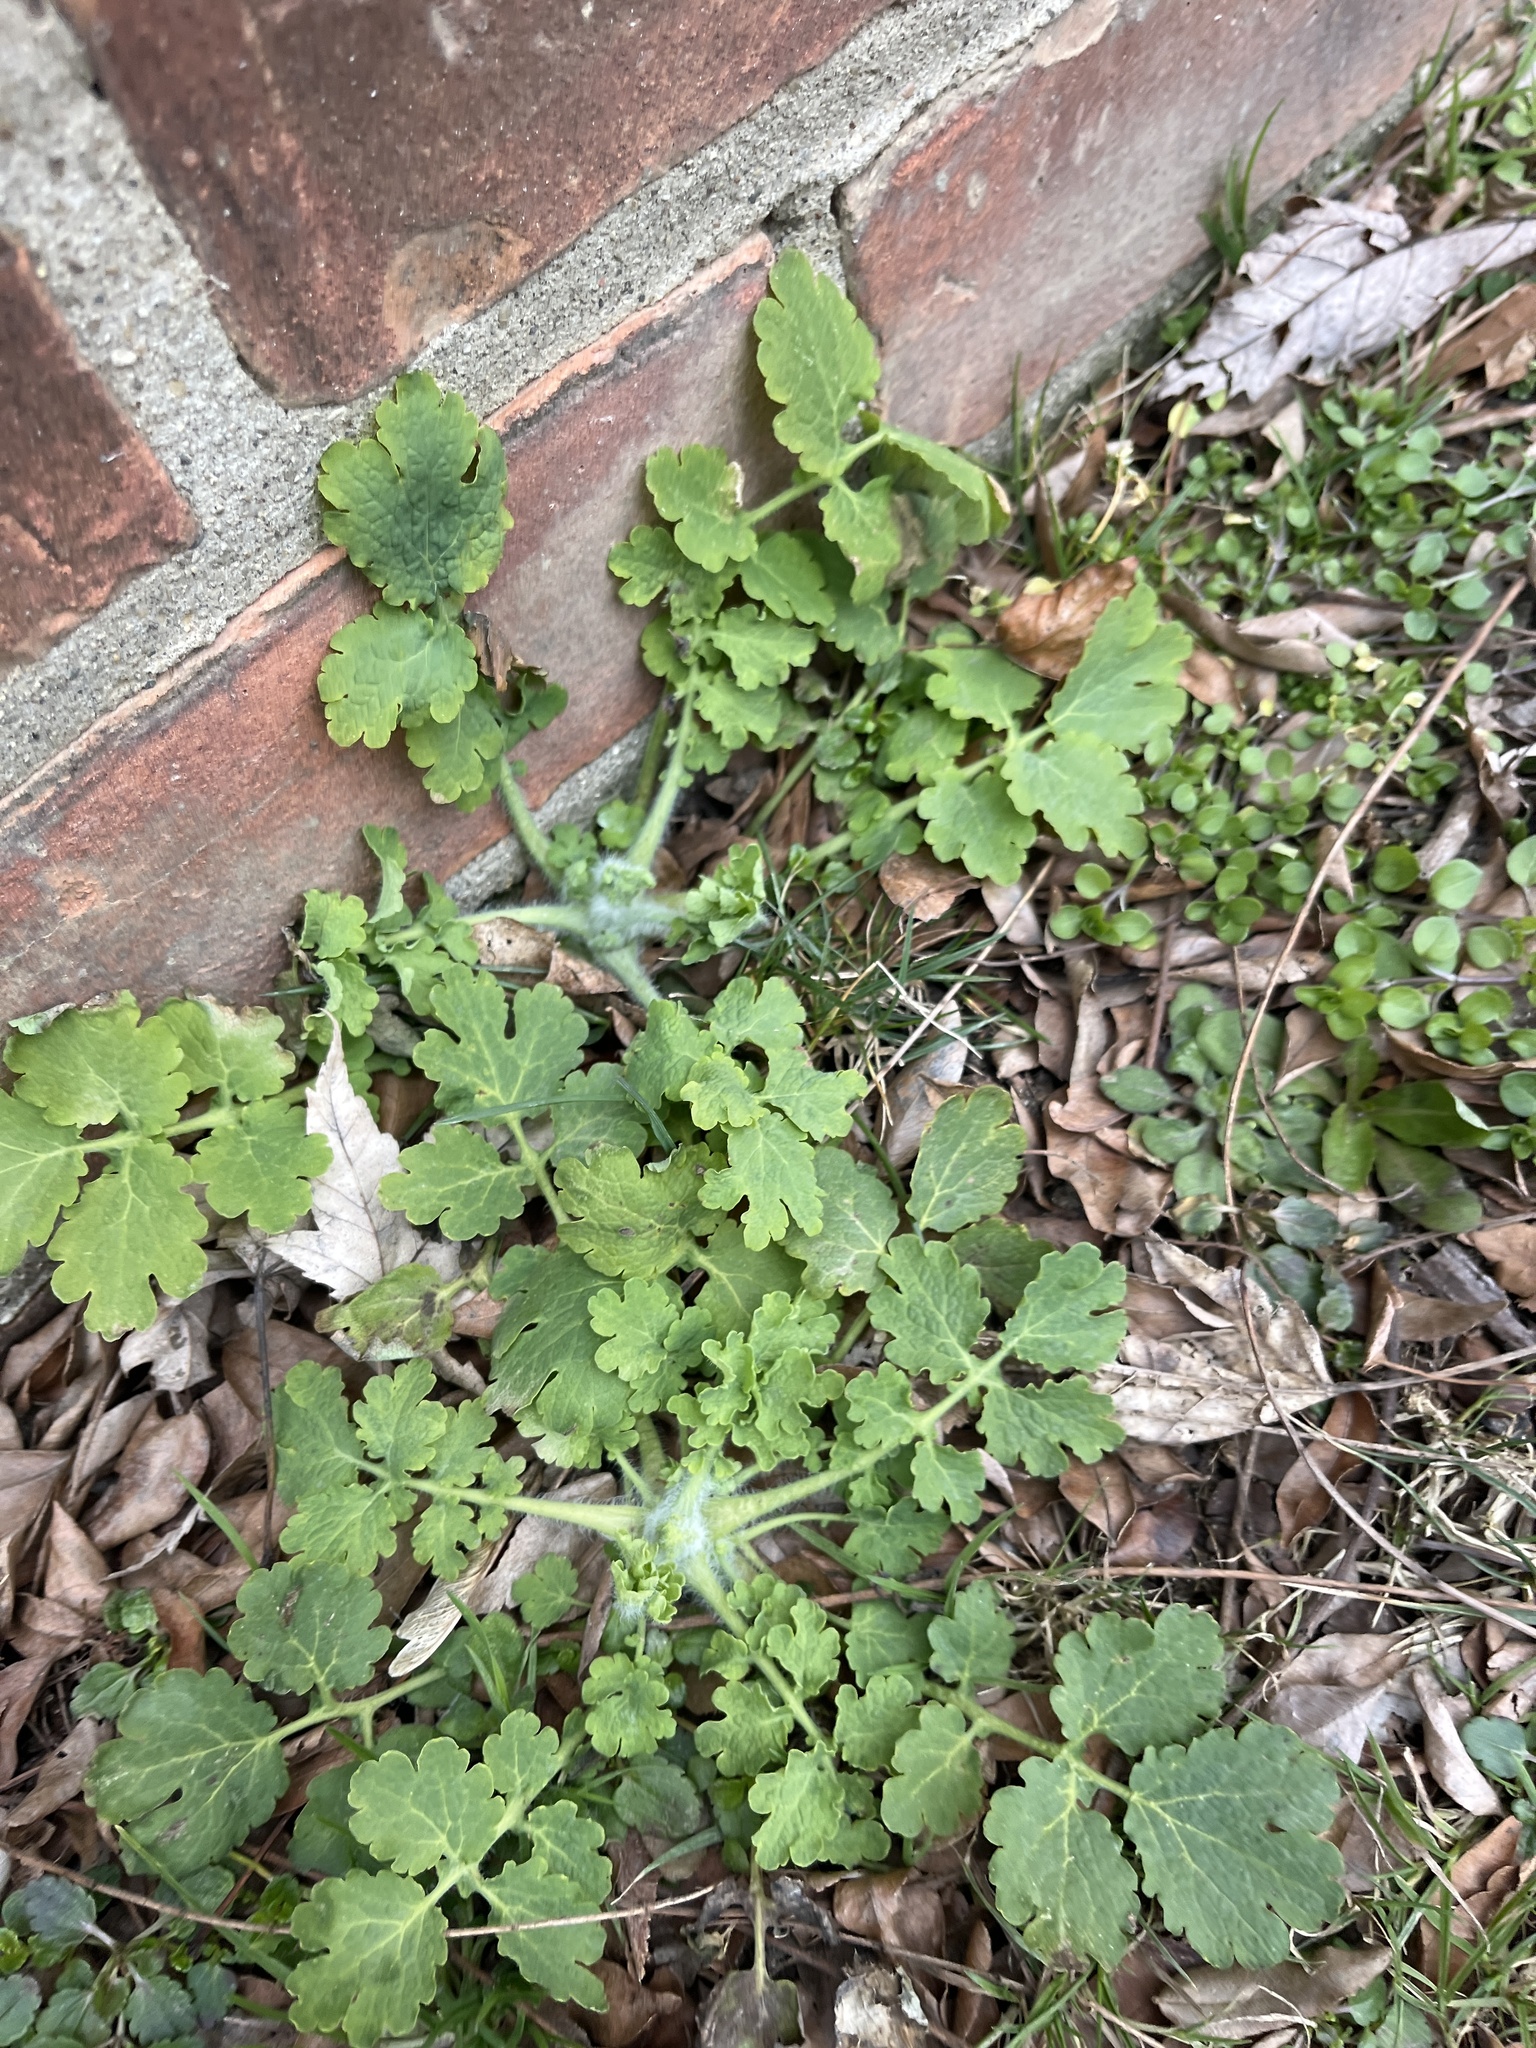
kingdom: Plantae
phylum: Tracheophyta
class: Magnoliopsida
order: Ranunculales
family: Papaveraceae
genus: Chelidonium
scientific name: Chelidonium majus
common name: Greater celandine
